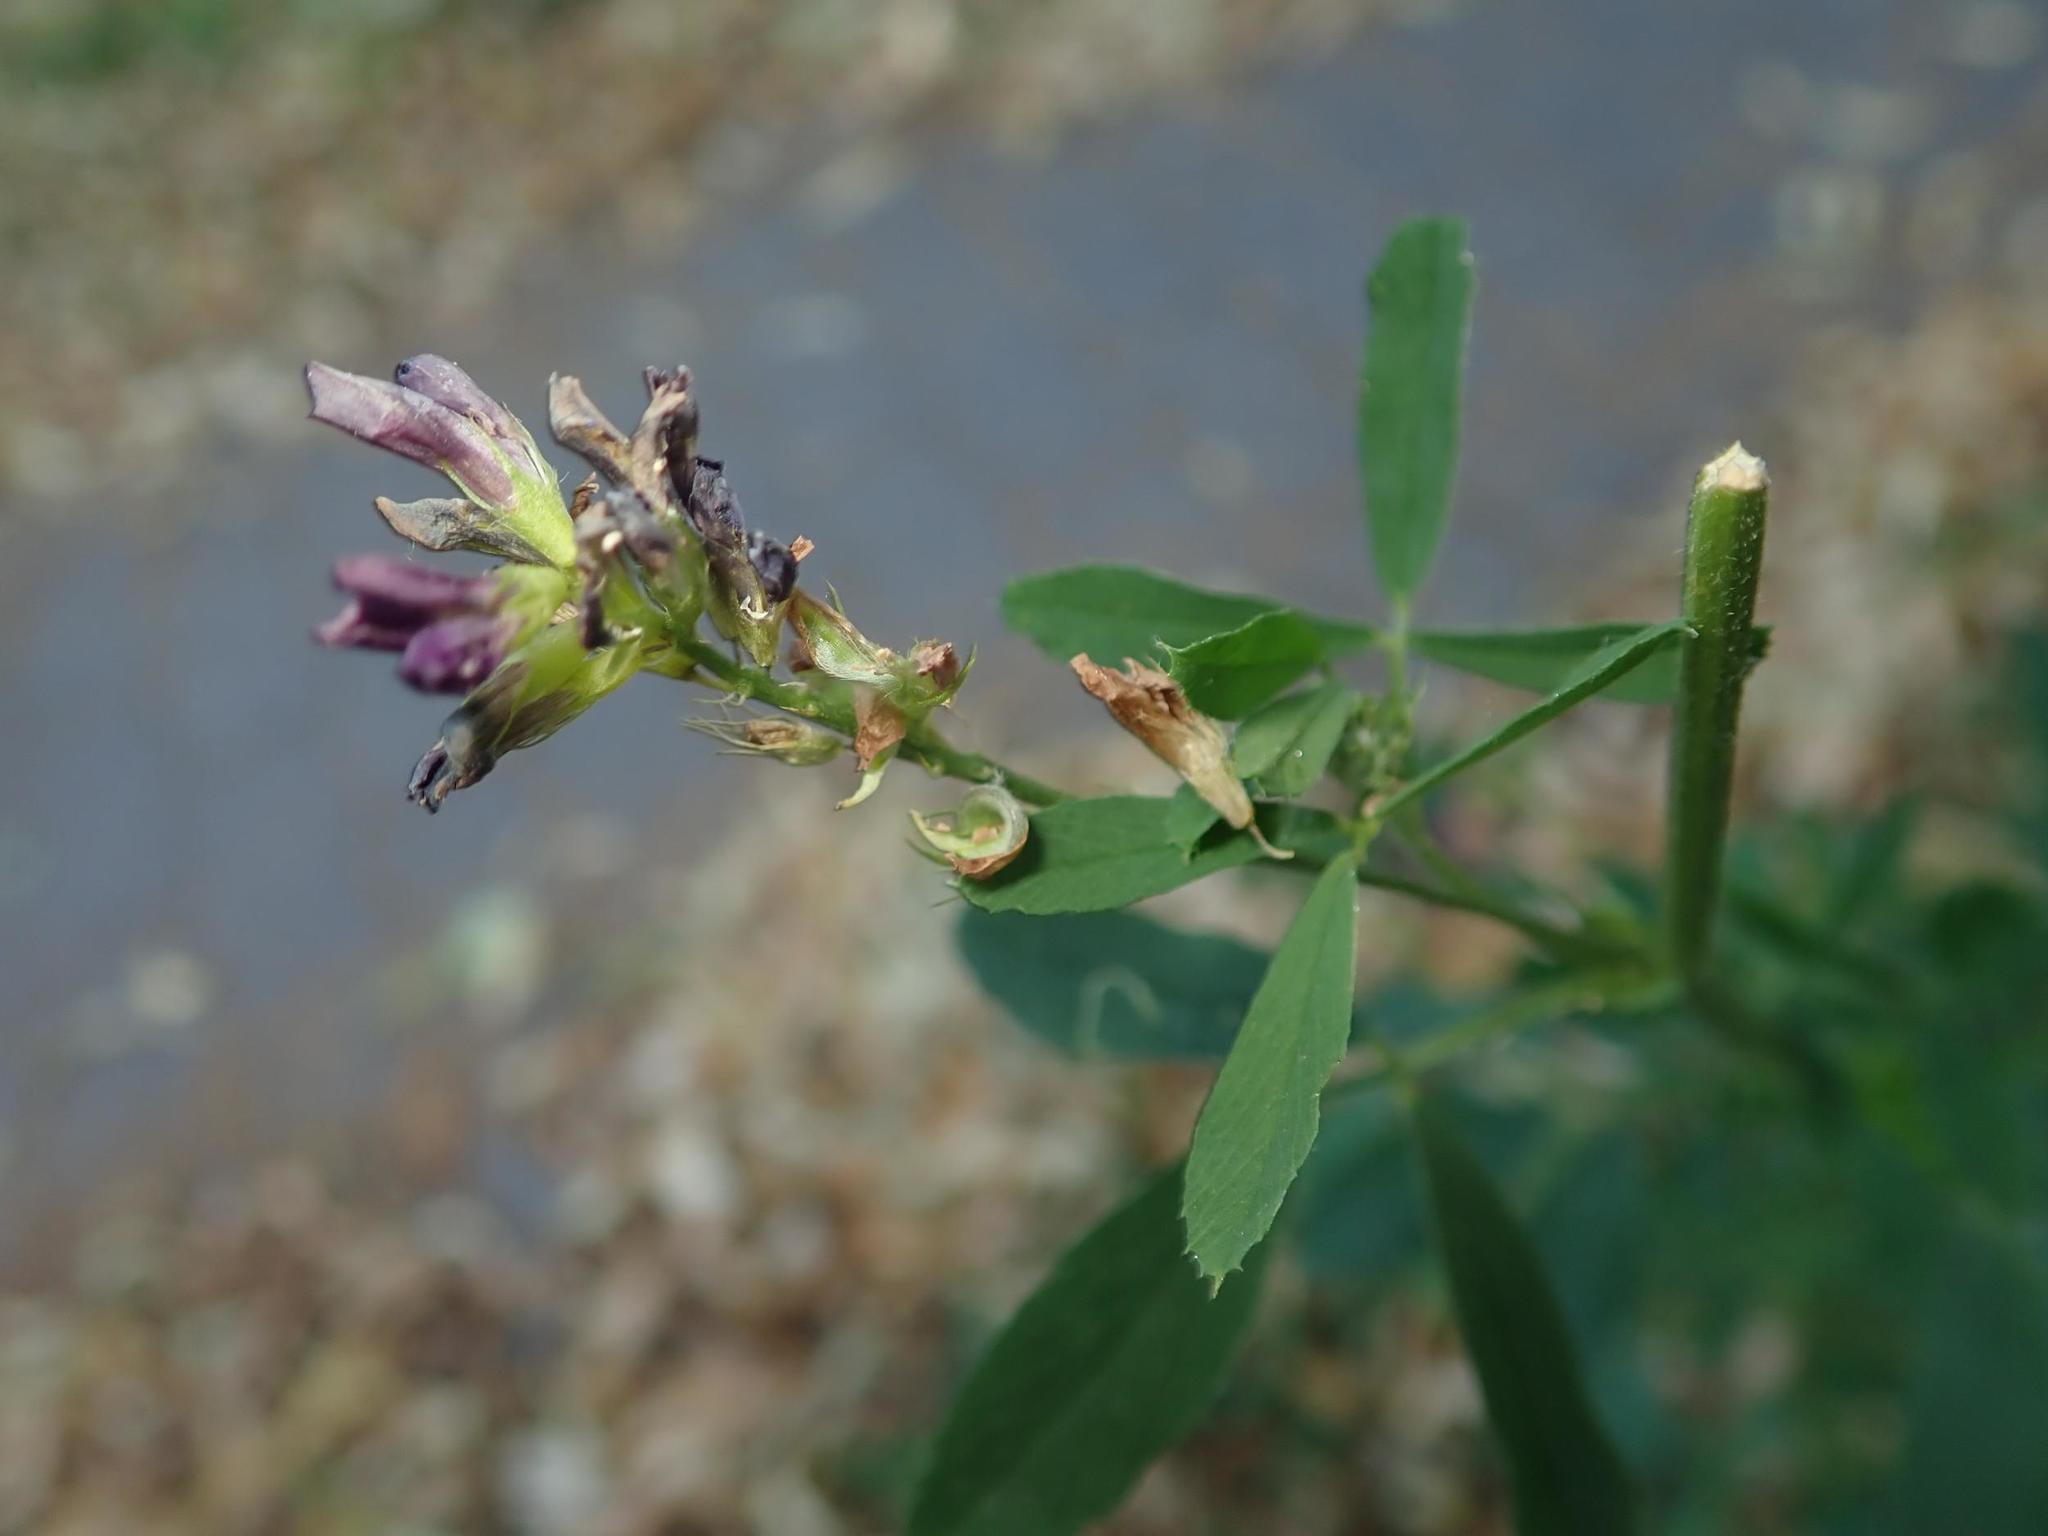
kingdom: Plantae
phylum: Tracheophyta
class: Magnoliopsida
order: Fabales
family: Fabaceae
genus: Medicago
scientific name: Medicago varia
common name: Sand lucerne
